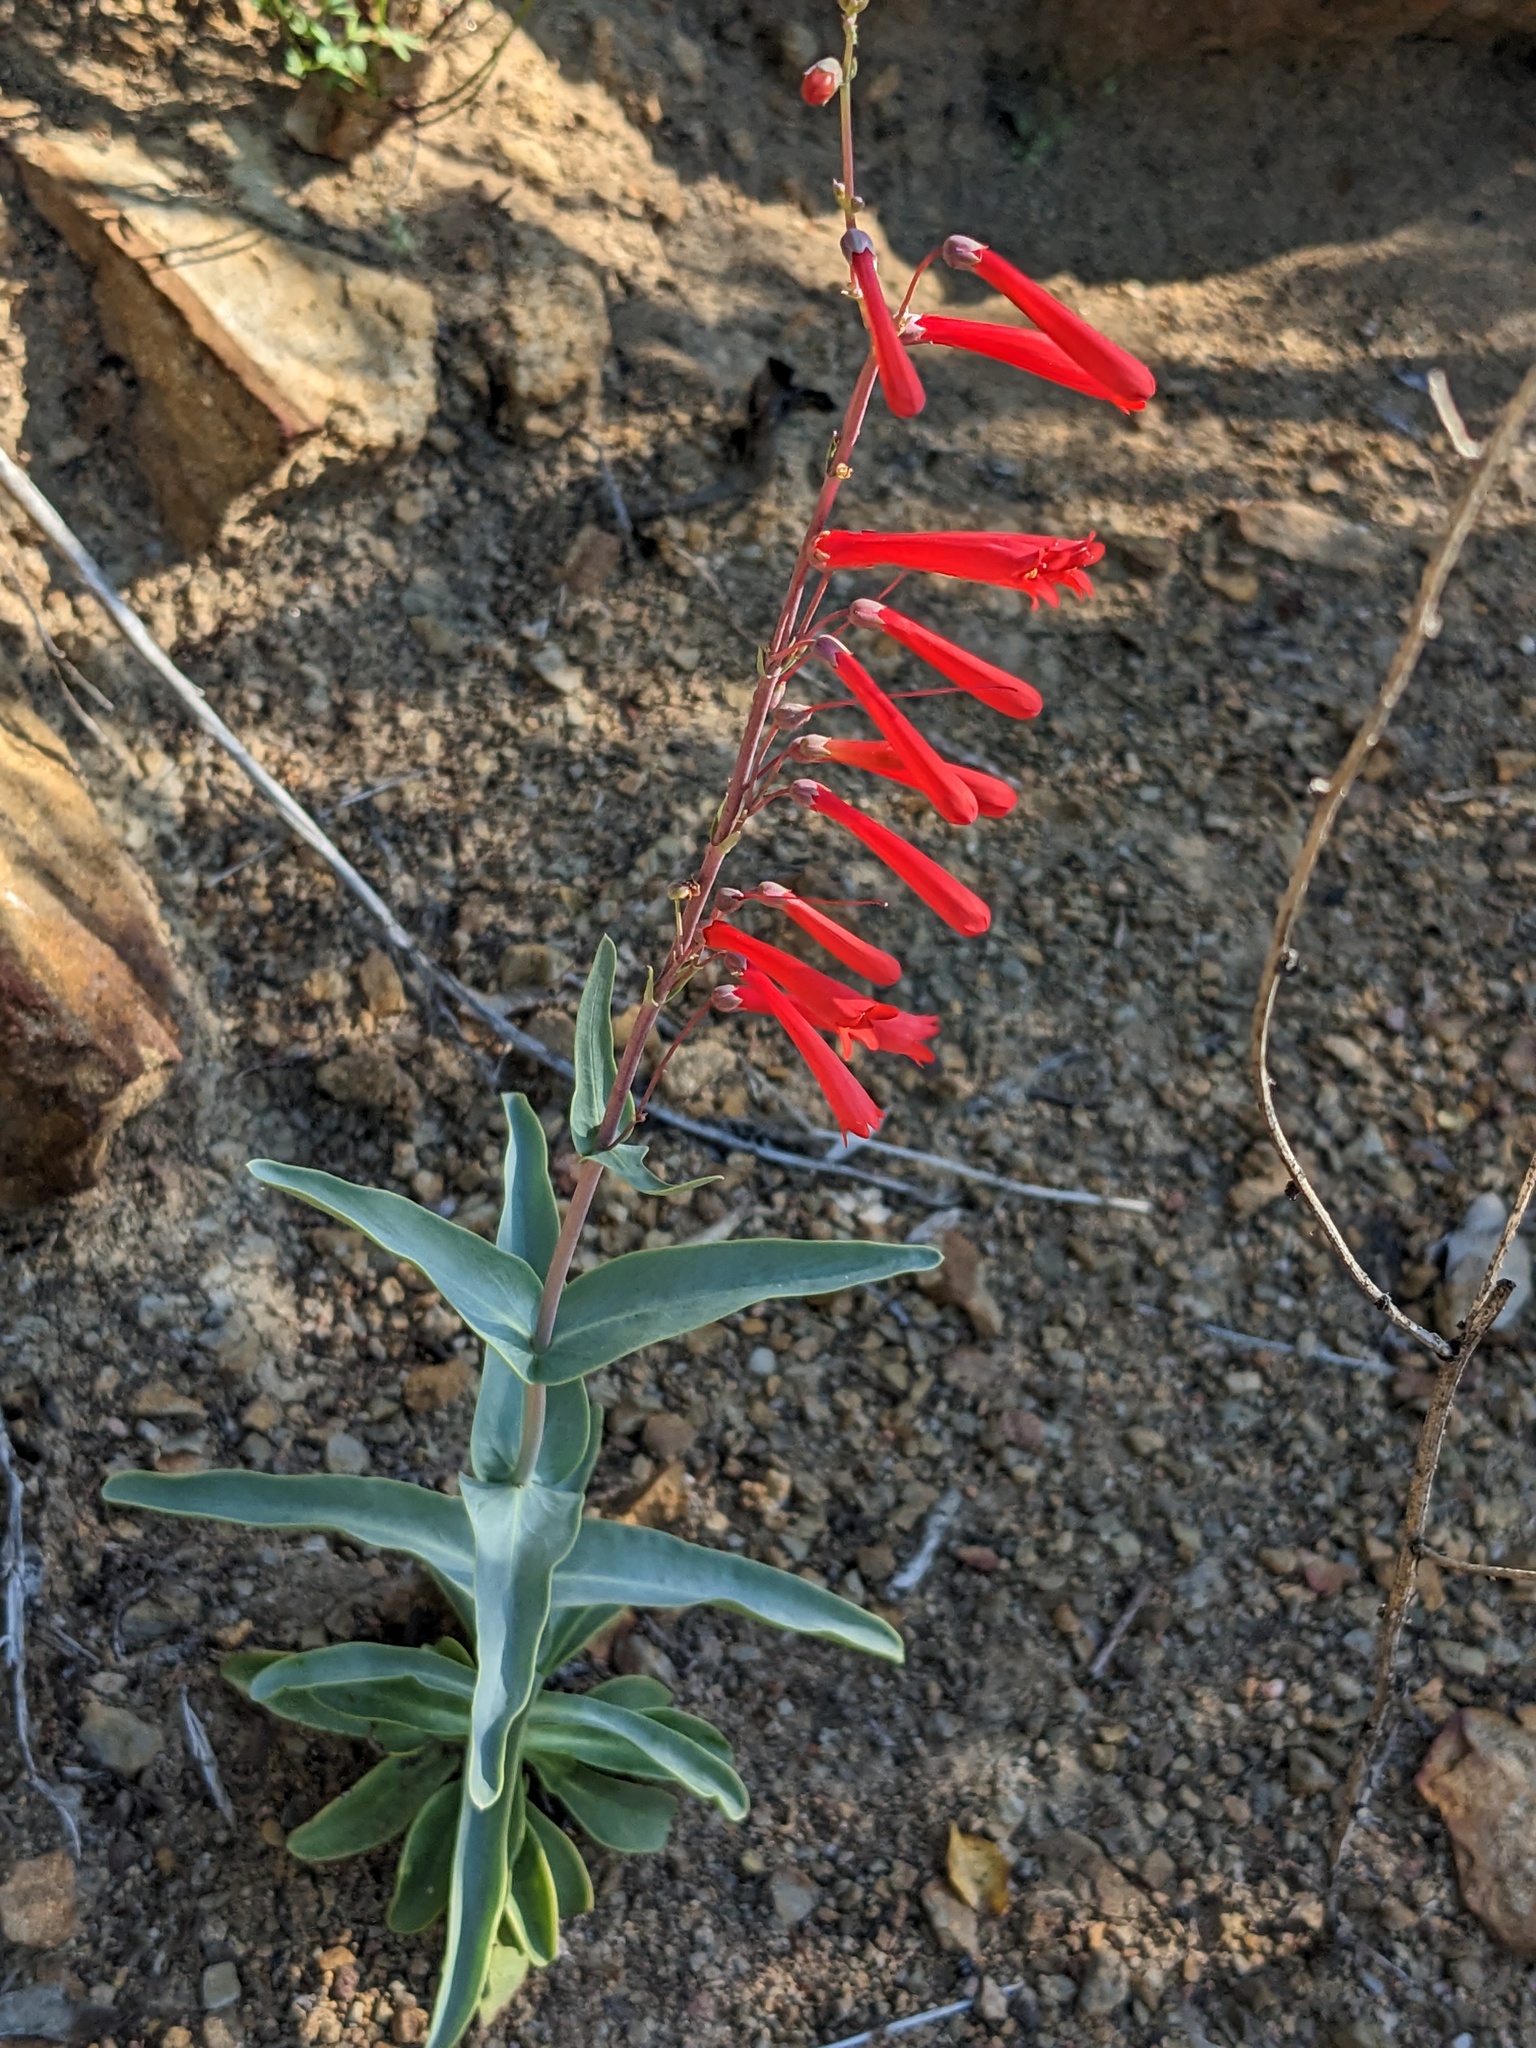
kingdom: Plantae
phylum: Tracheophyta
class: Magnoliopsida
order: Lamiales
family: Plantaginaceae
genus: Penstemon
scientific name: Penstemon centranthifolius
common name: Scarlet bugler
